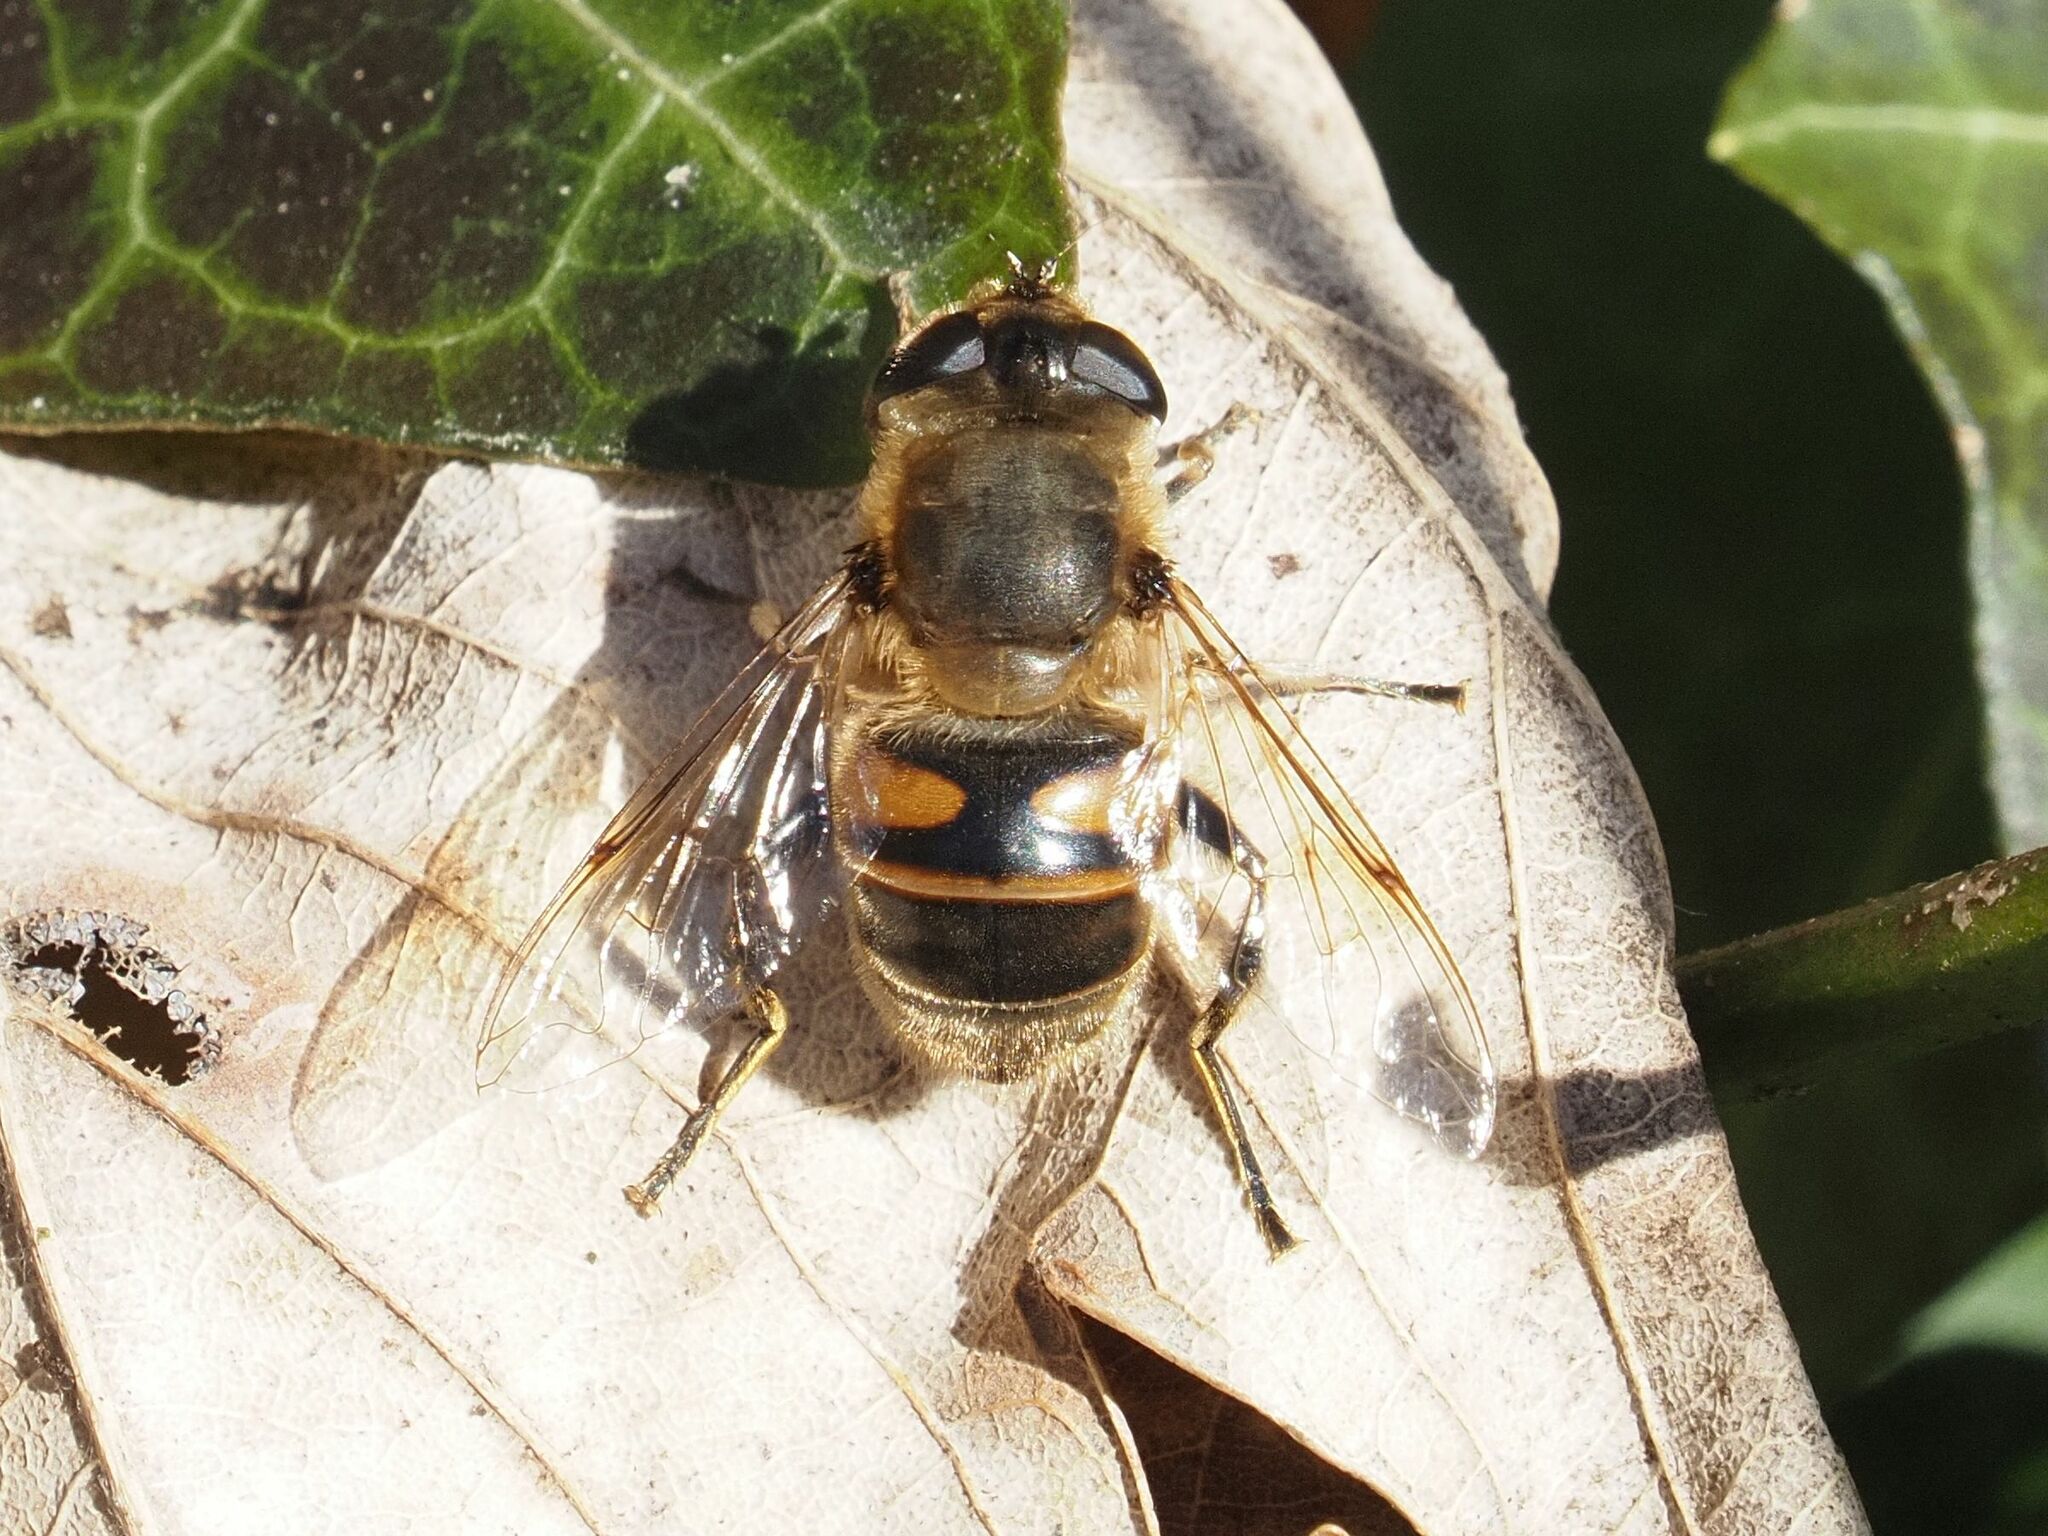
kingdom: Animalia
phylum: Arthropoda
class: Insecta
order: Diptera
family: Syrphidae
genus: Eristalis
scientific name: Eristalis tenax
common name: Drone fly
